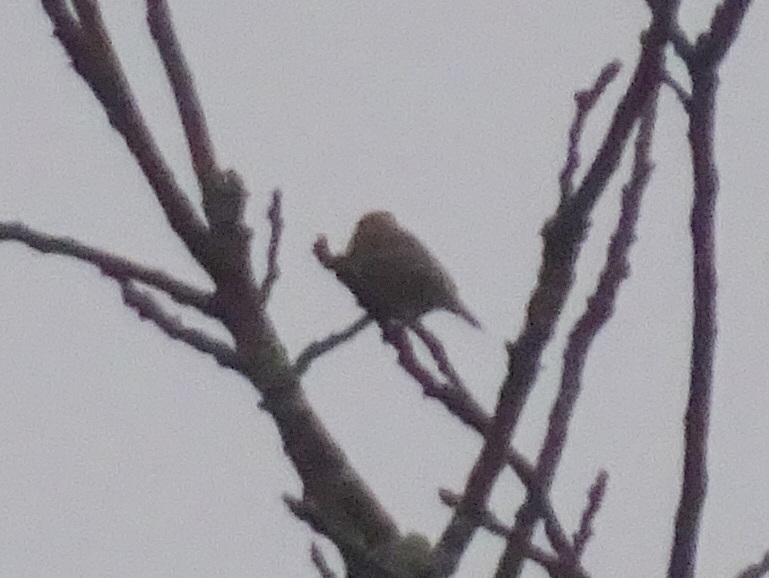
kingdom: Animalia
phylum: Chordata
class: Aves
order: Passeriformes
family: Fringillidae
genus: Spinus
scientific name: Spinus pinus
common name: Pine siskin
